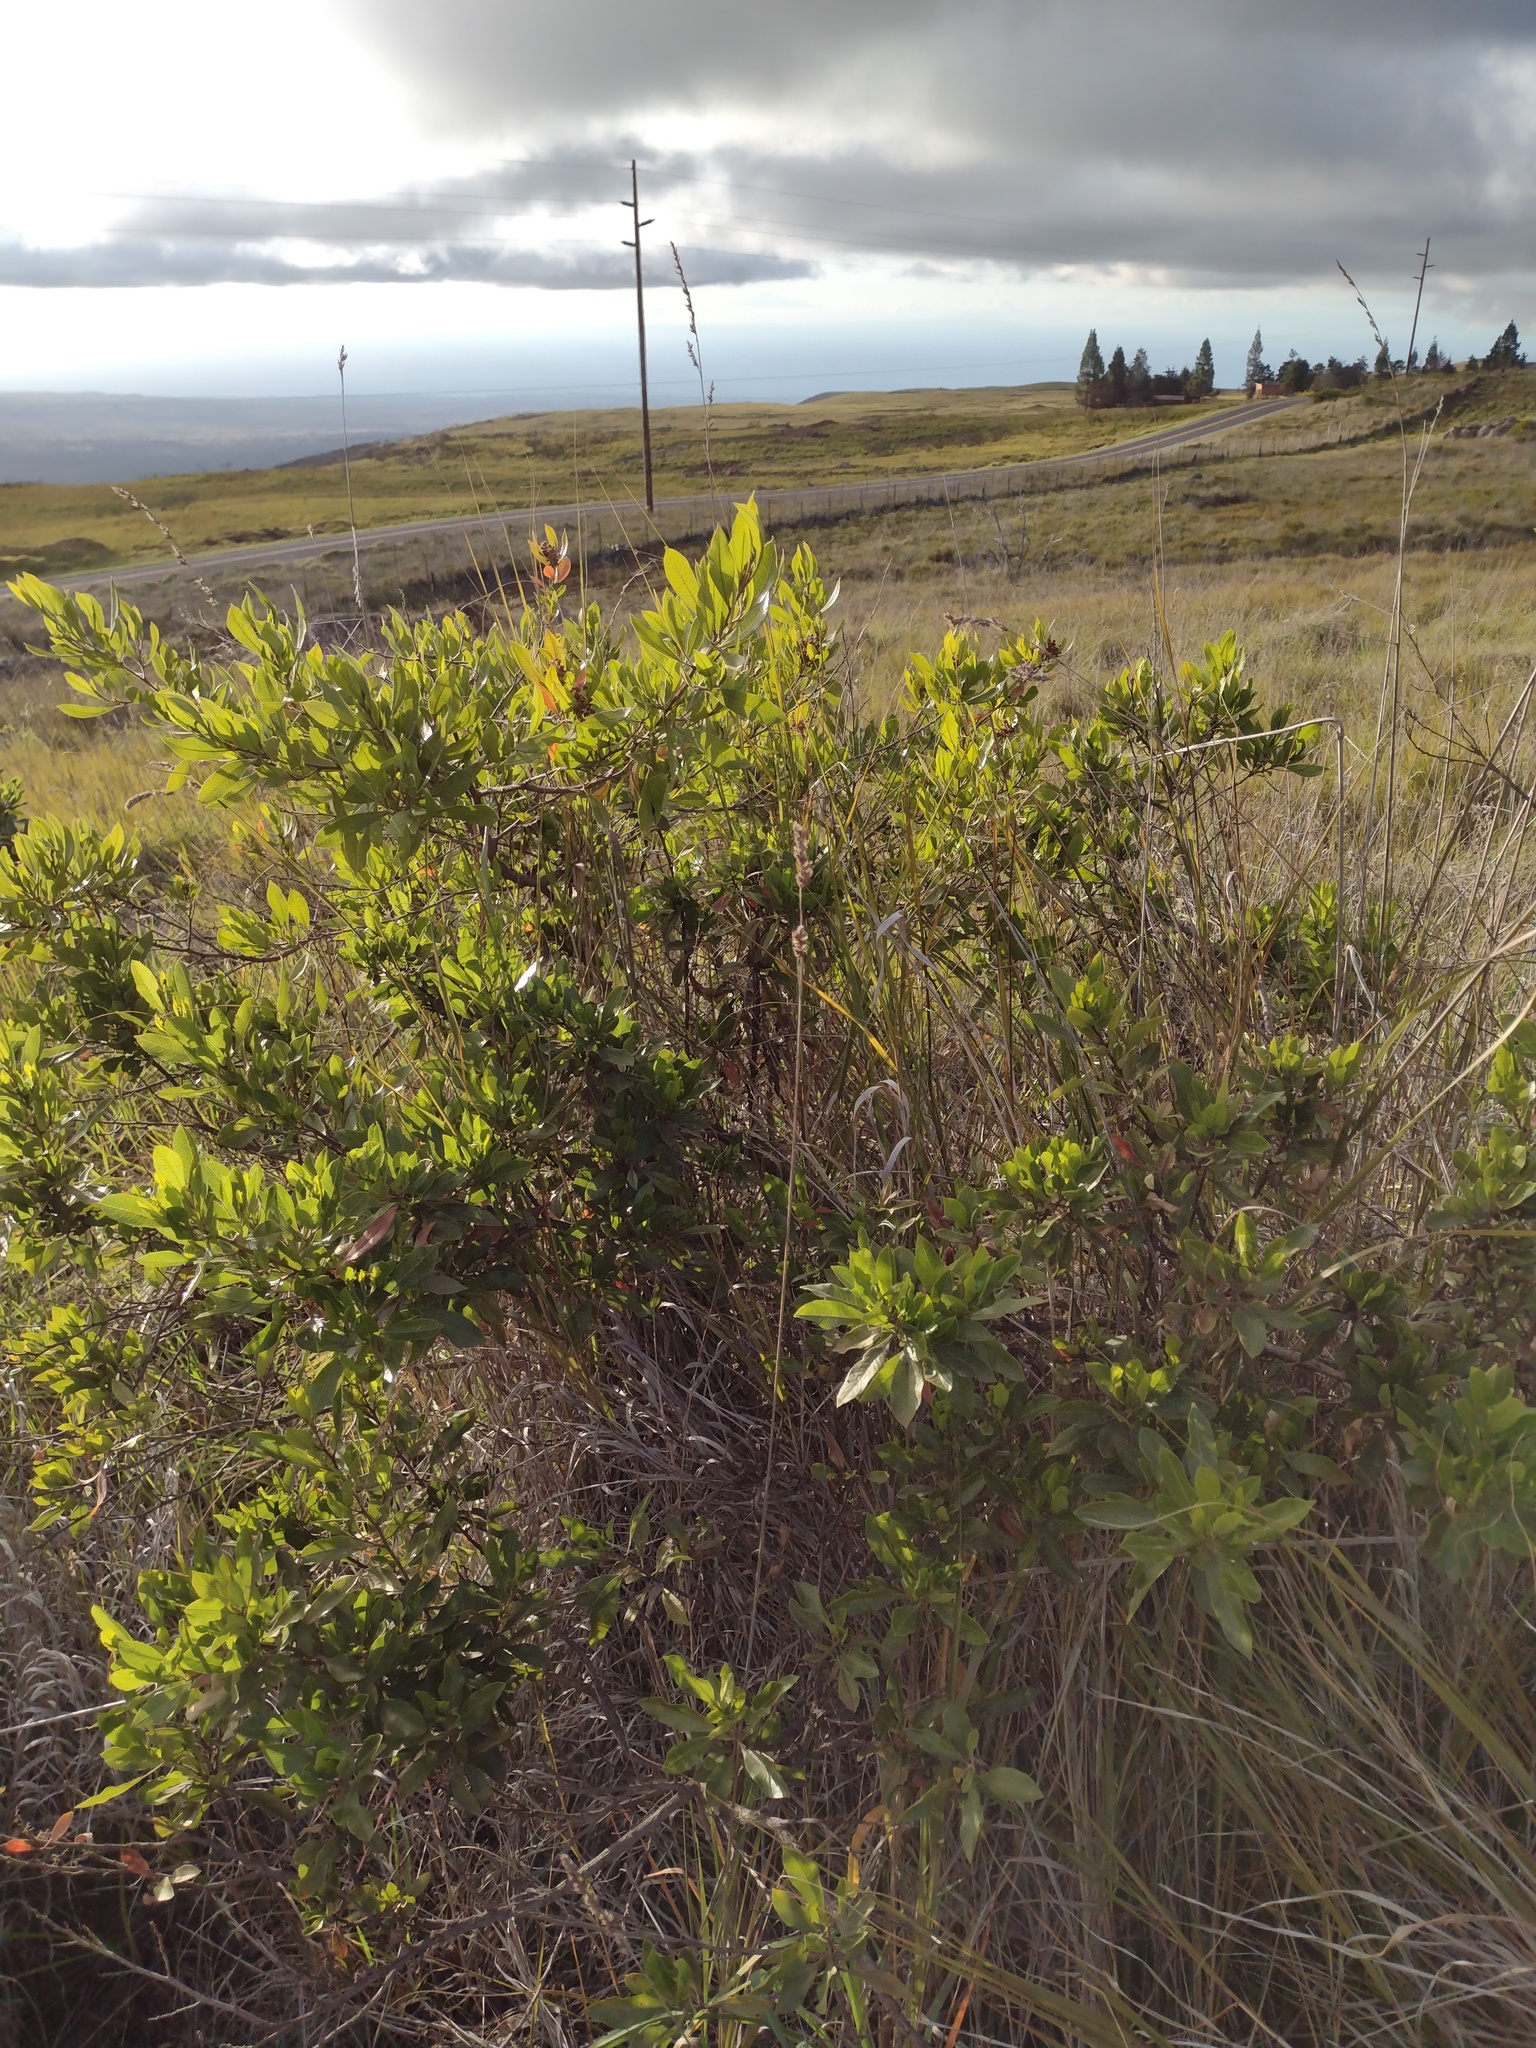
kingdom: Plantae
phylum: Tracheophyta
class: Magnoliopsida
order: Sapindales
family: Sapindaceae
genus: Dodonaea
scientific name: Dodonaea viscosa
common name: Hopbush
